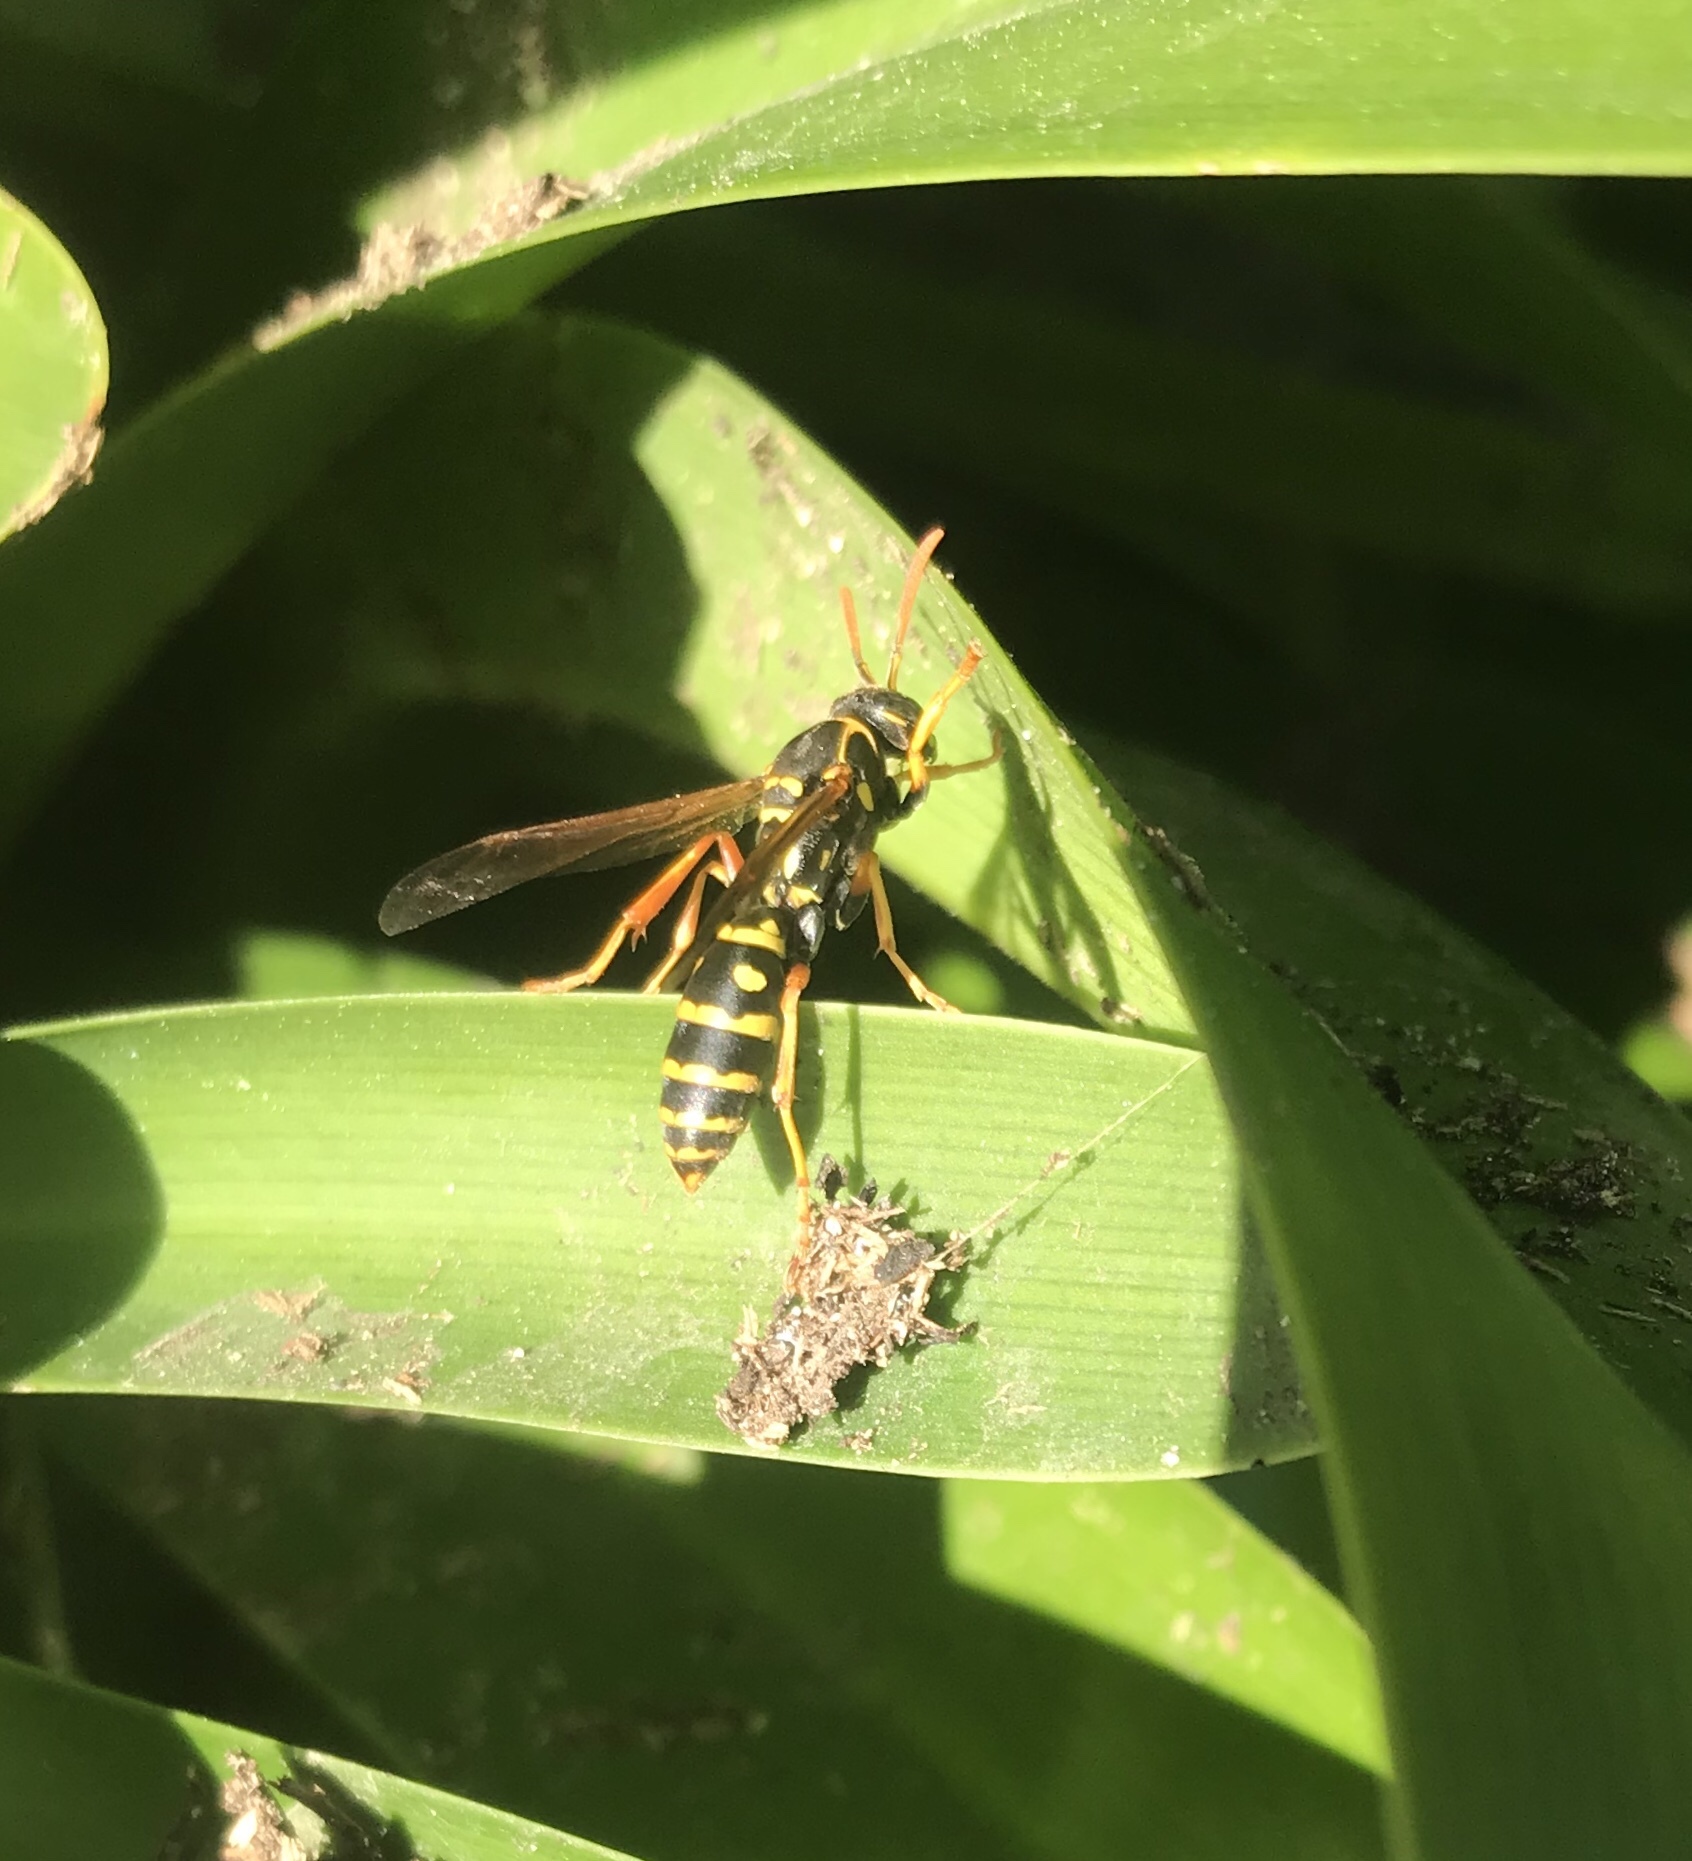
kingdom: Animalia
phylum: Arthropoda
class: Insecta
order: Hymenoptera
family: Eumenidae
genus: Polistes
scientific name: Polistes chinensis
